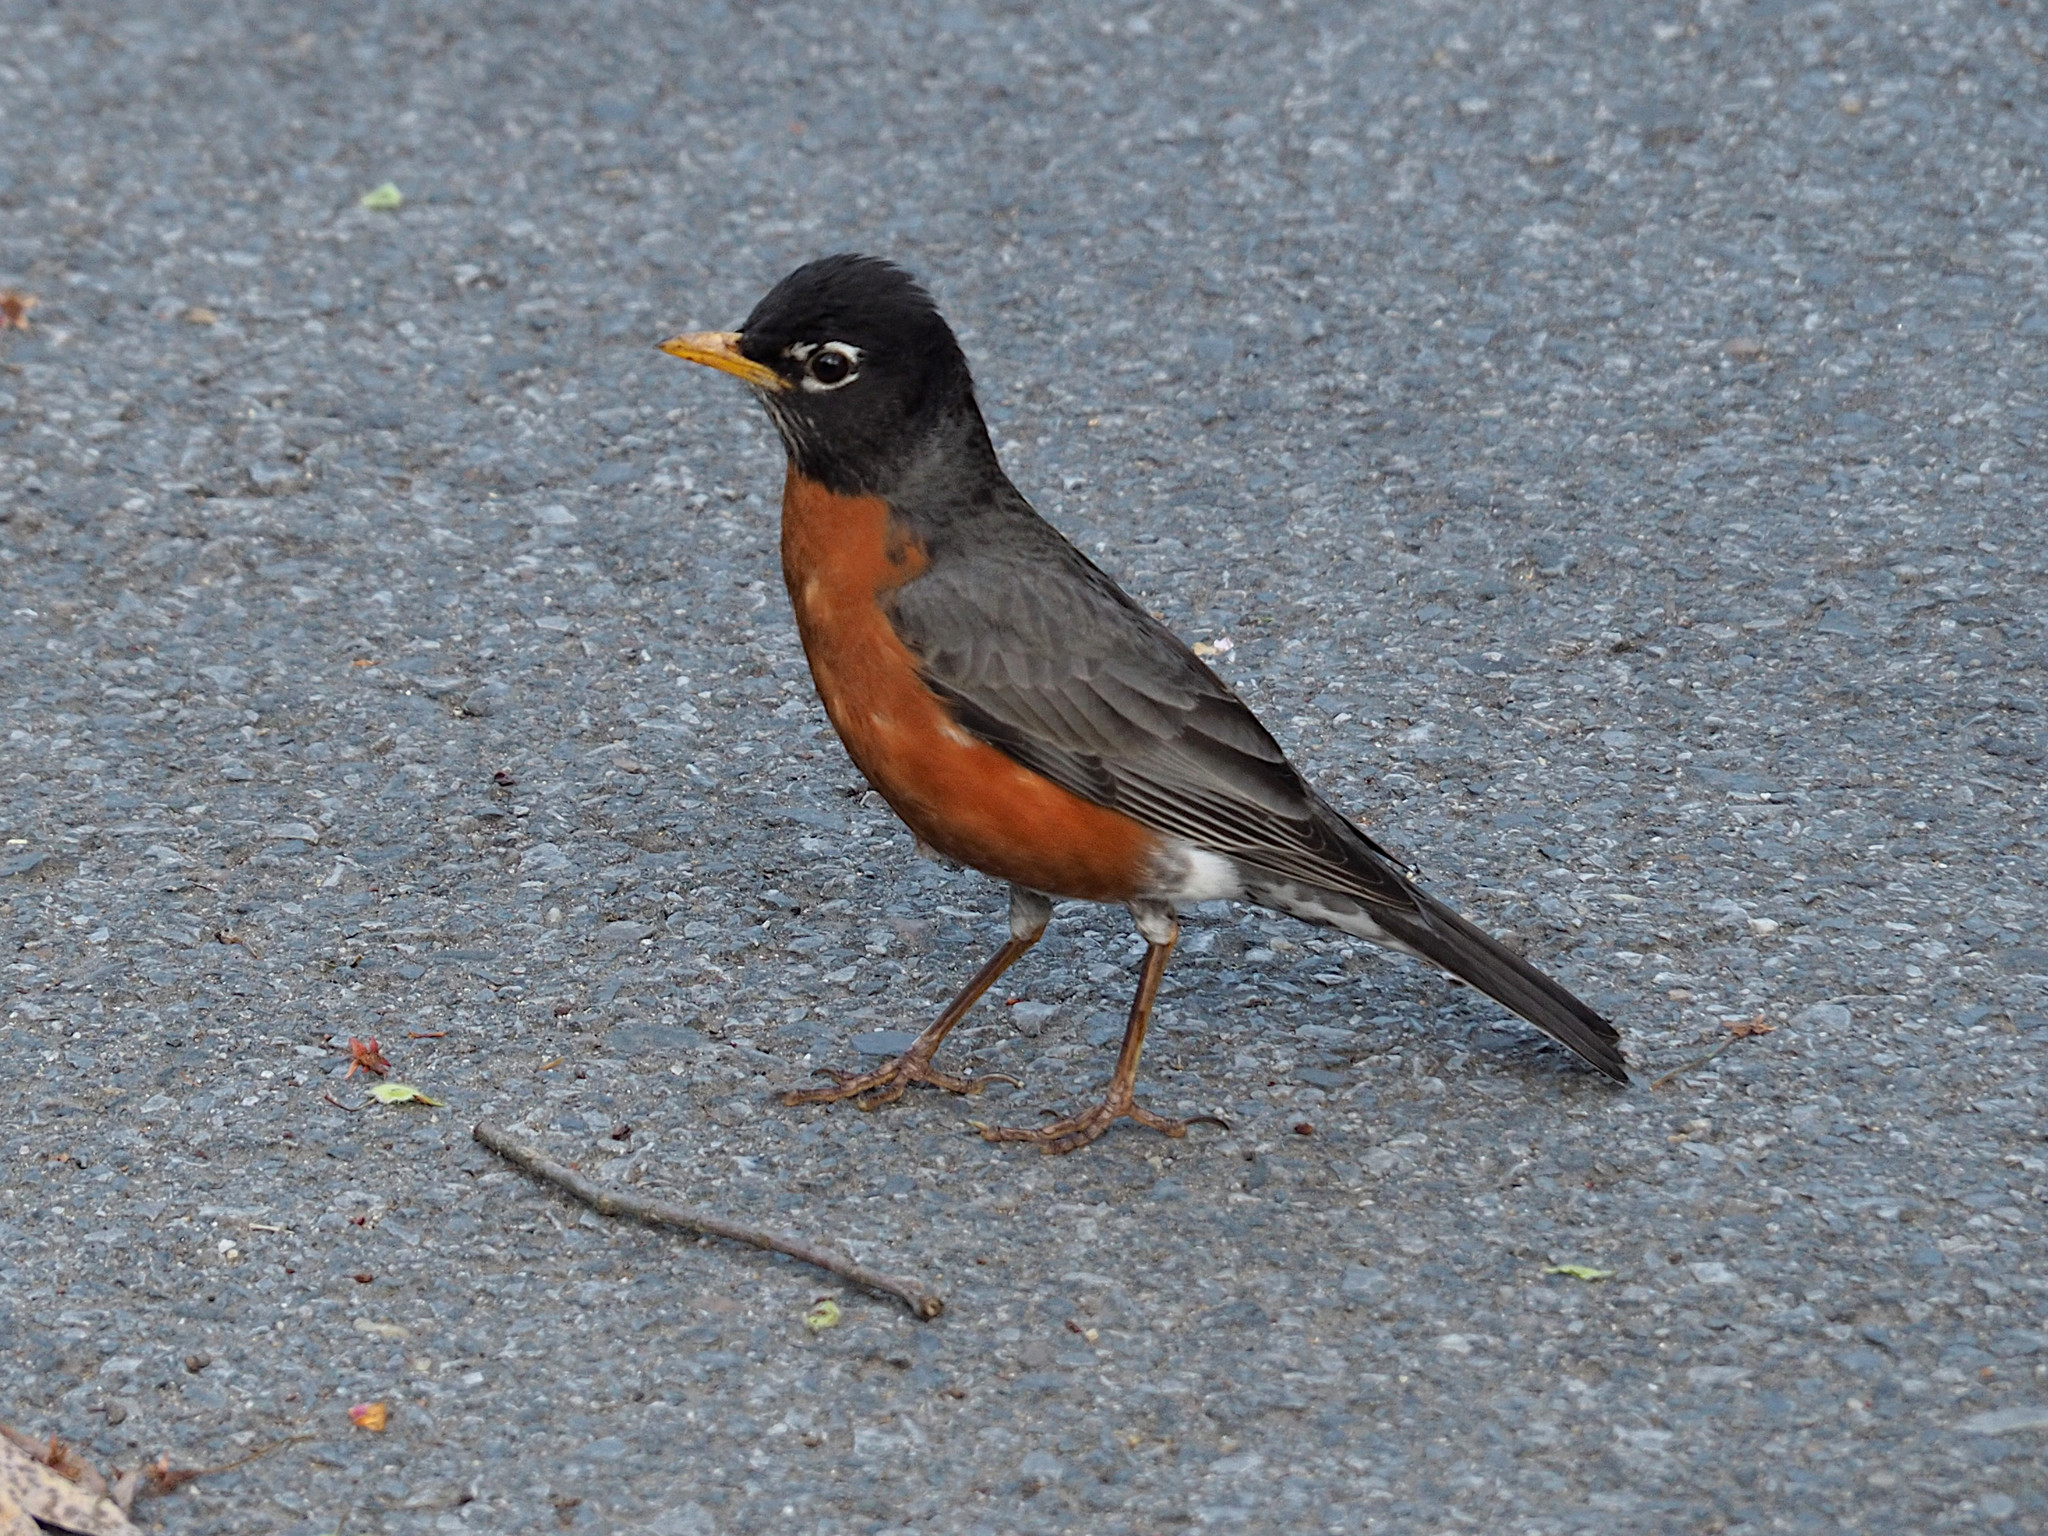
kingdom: Animalia
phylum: Chordata
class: Aves
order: Passeriformes
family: Turdidae
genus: Turdus
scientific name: Turdus migratorius
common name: American robin
